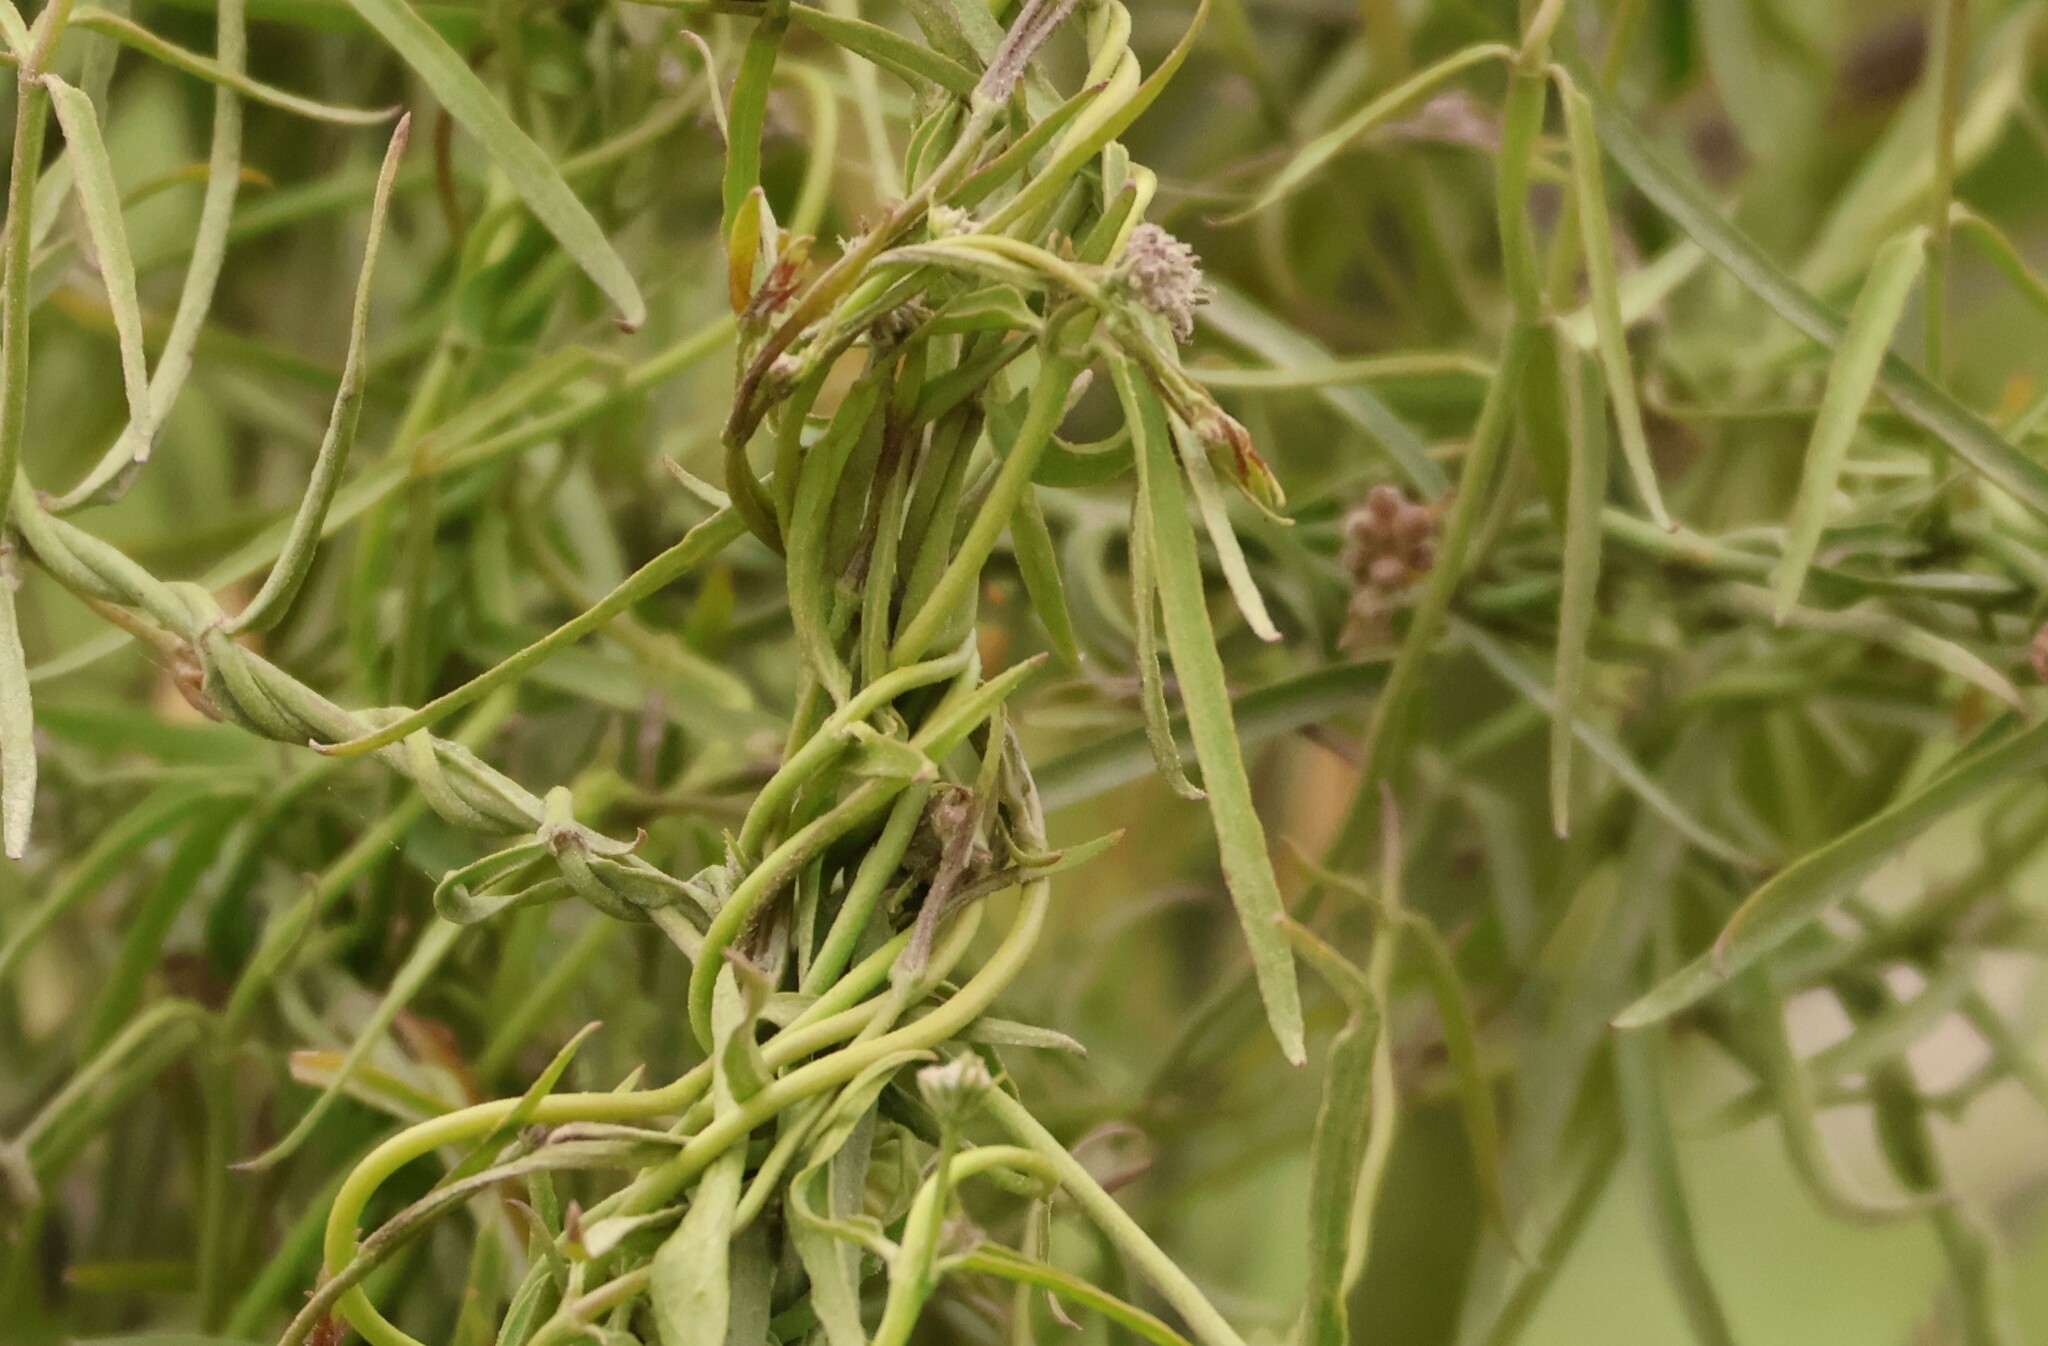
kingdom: Plantae
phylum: Tracheophyta
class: Magnoliopsida
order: Gentianales
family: Apocynaceae
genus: Funastrum
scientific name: Funastrum heterophyllum
